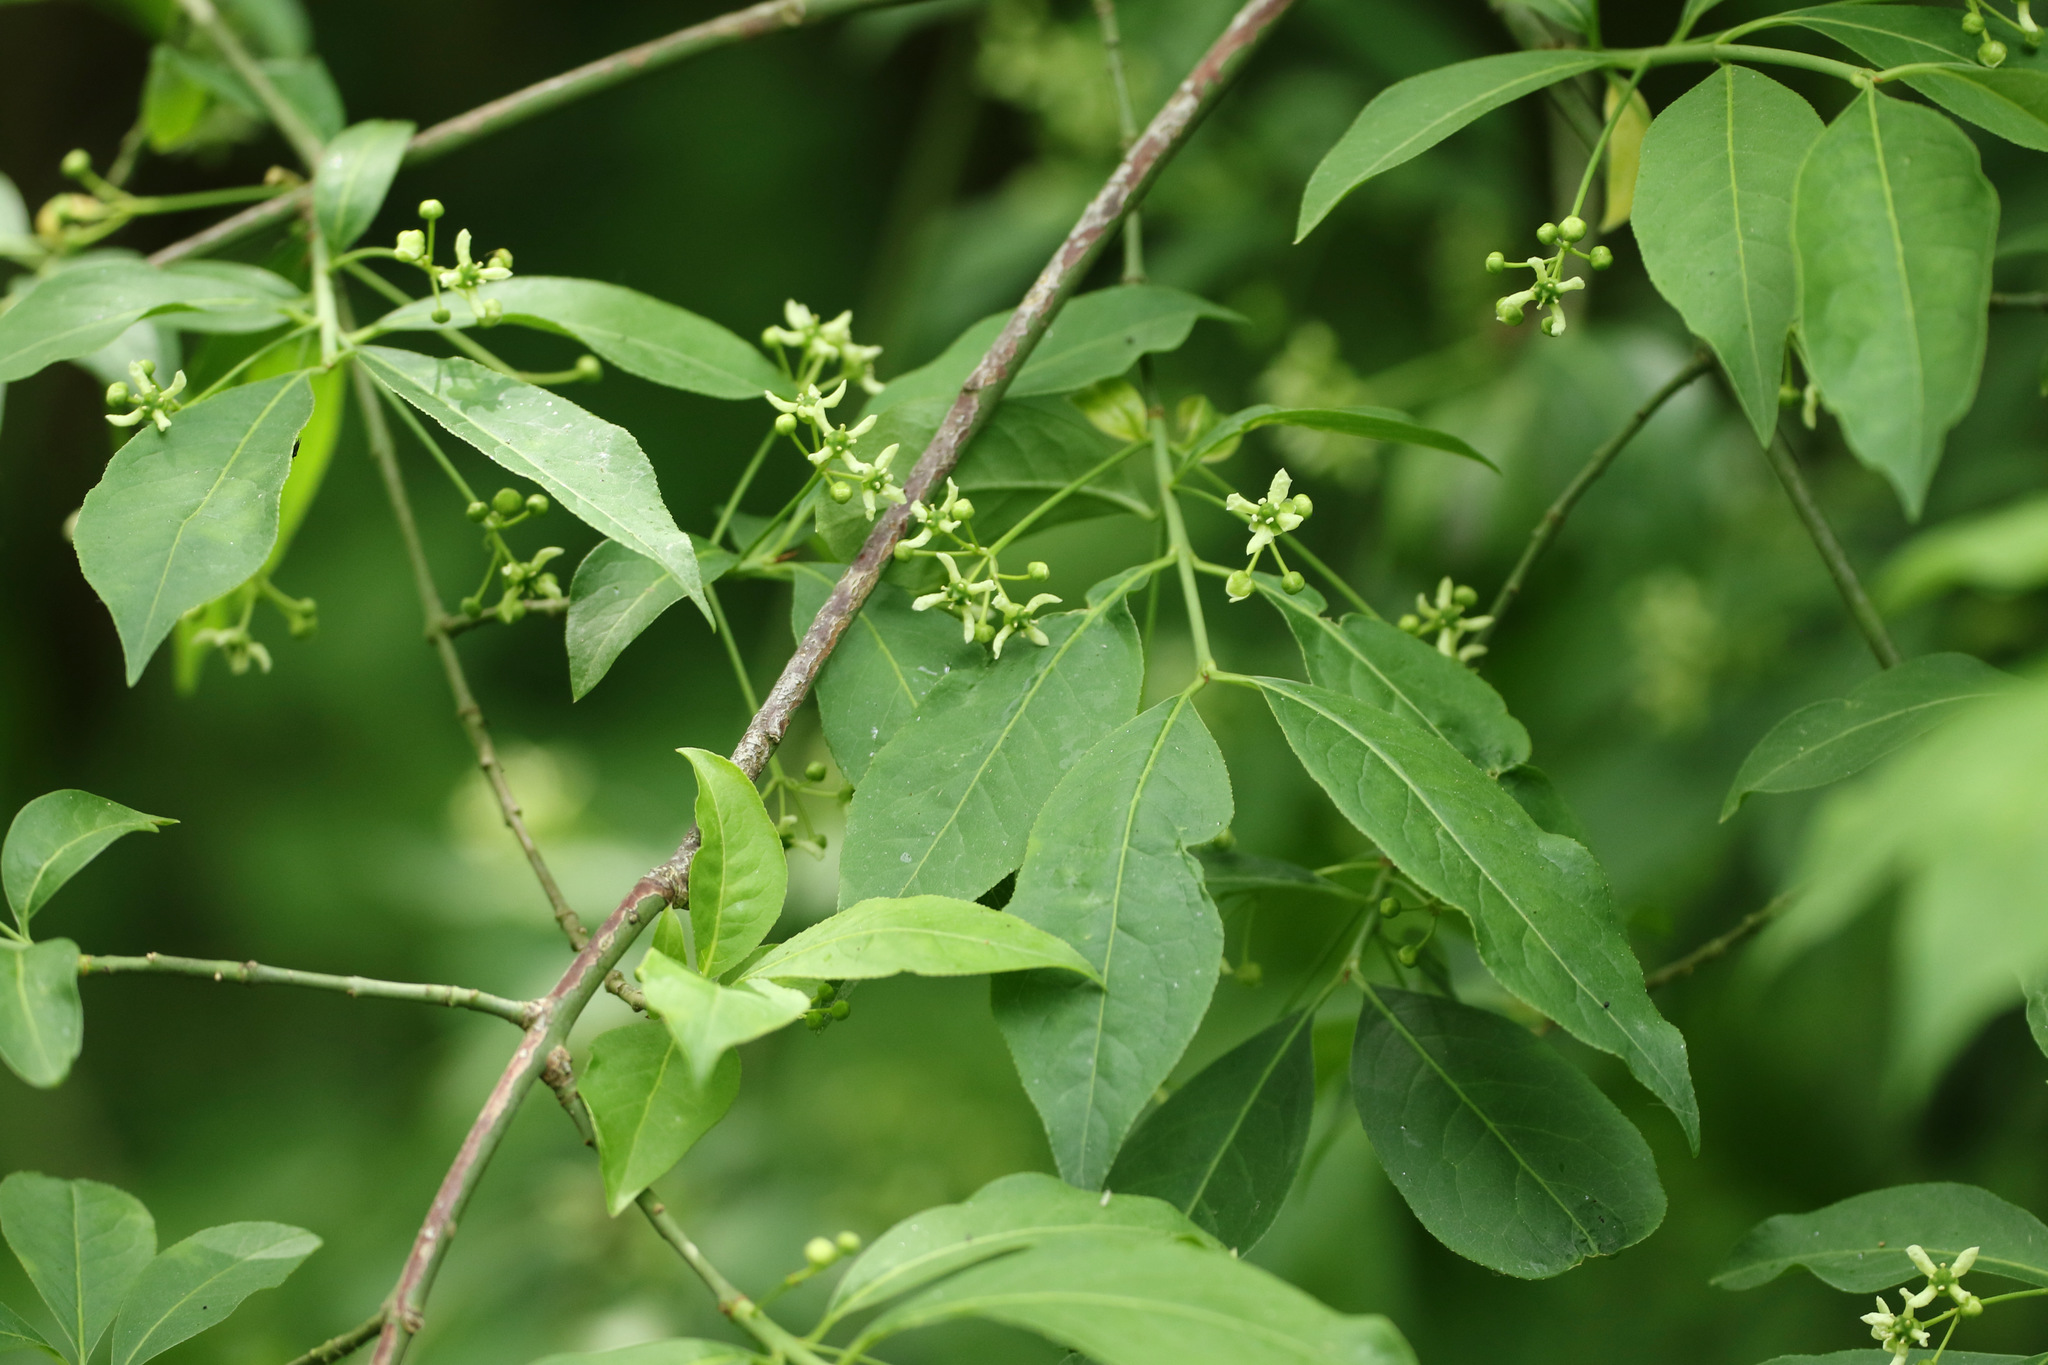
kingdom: Plantae
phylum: Tracheophyta
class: Magnoliopsida
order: Celastrales
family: Celastraceae
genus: Euonymus
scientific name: Euonymus europaeus
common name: Spindle
